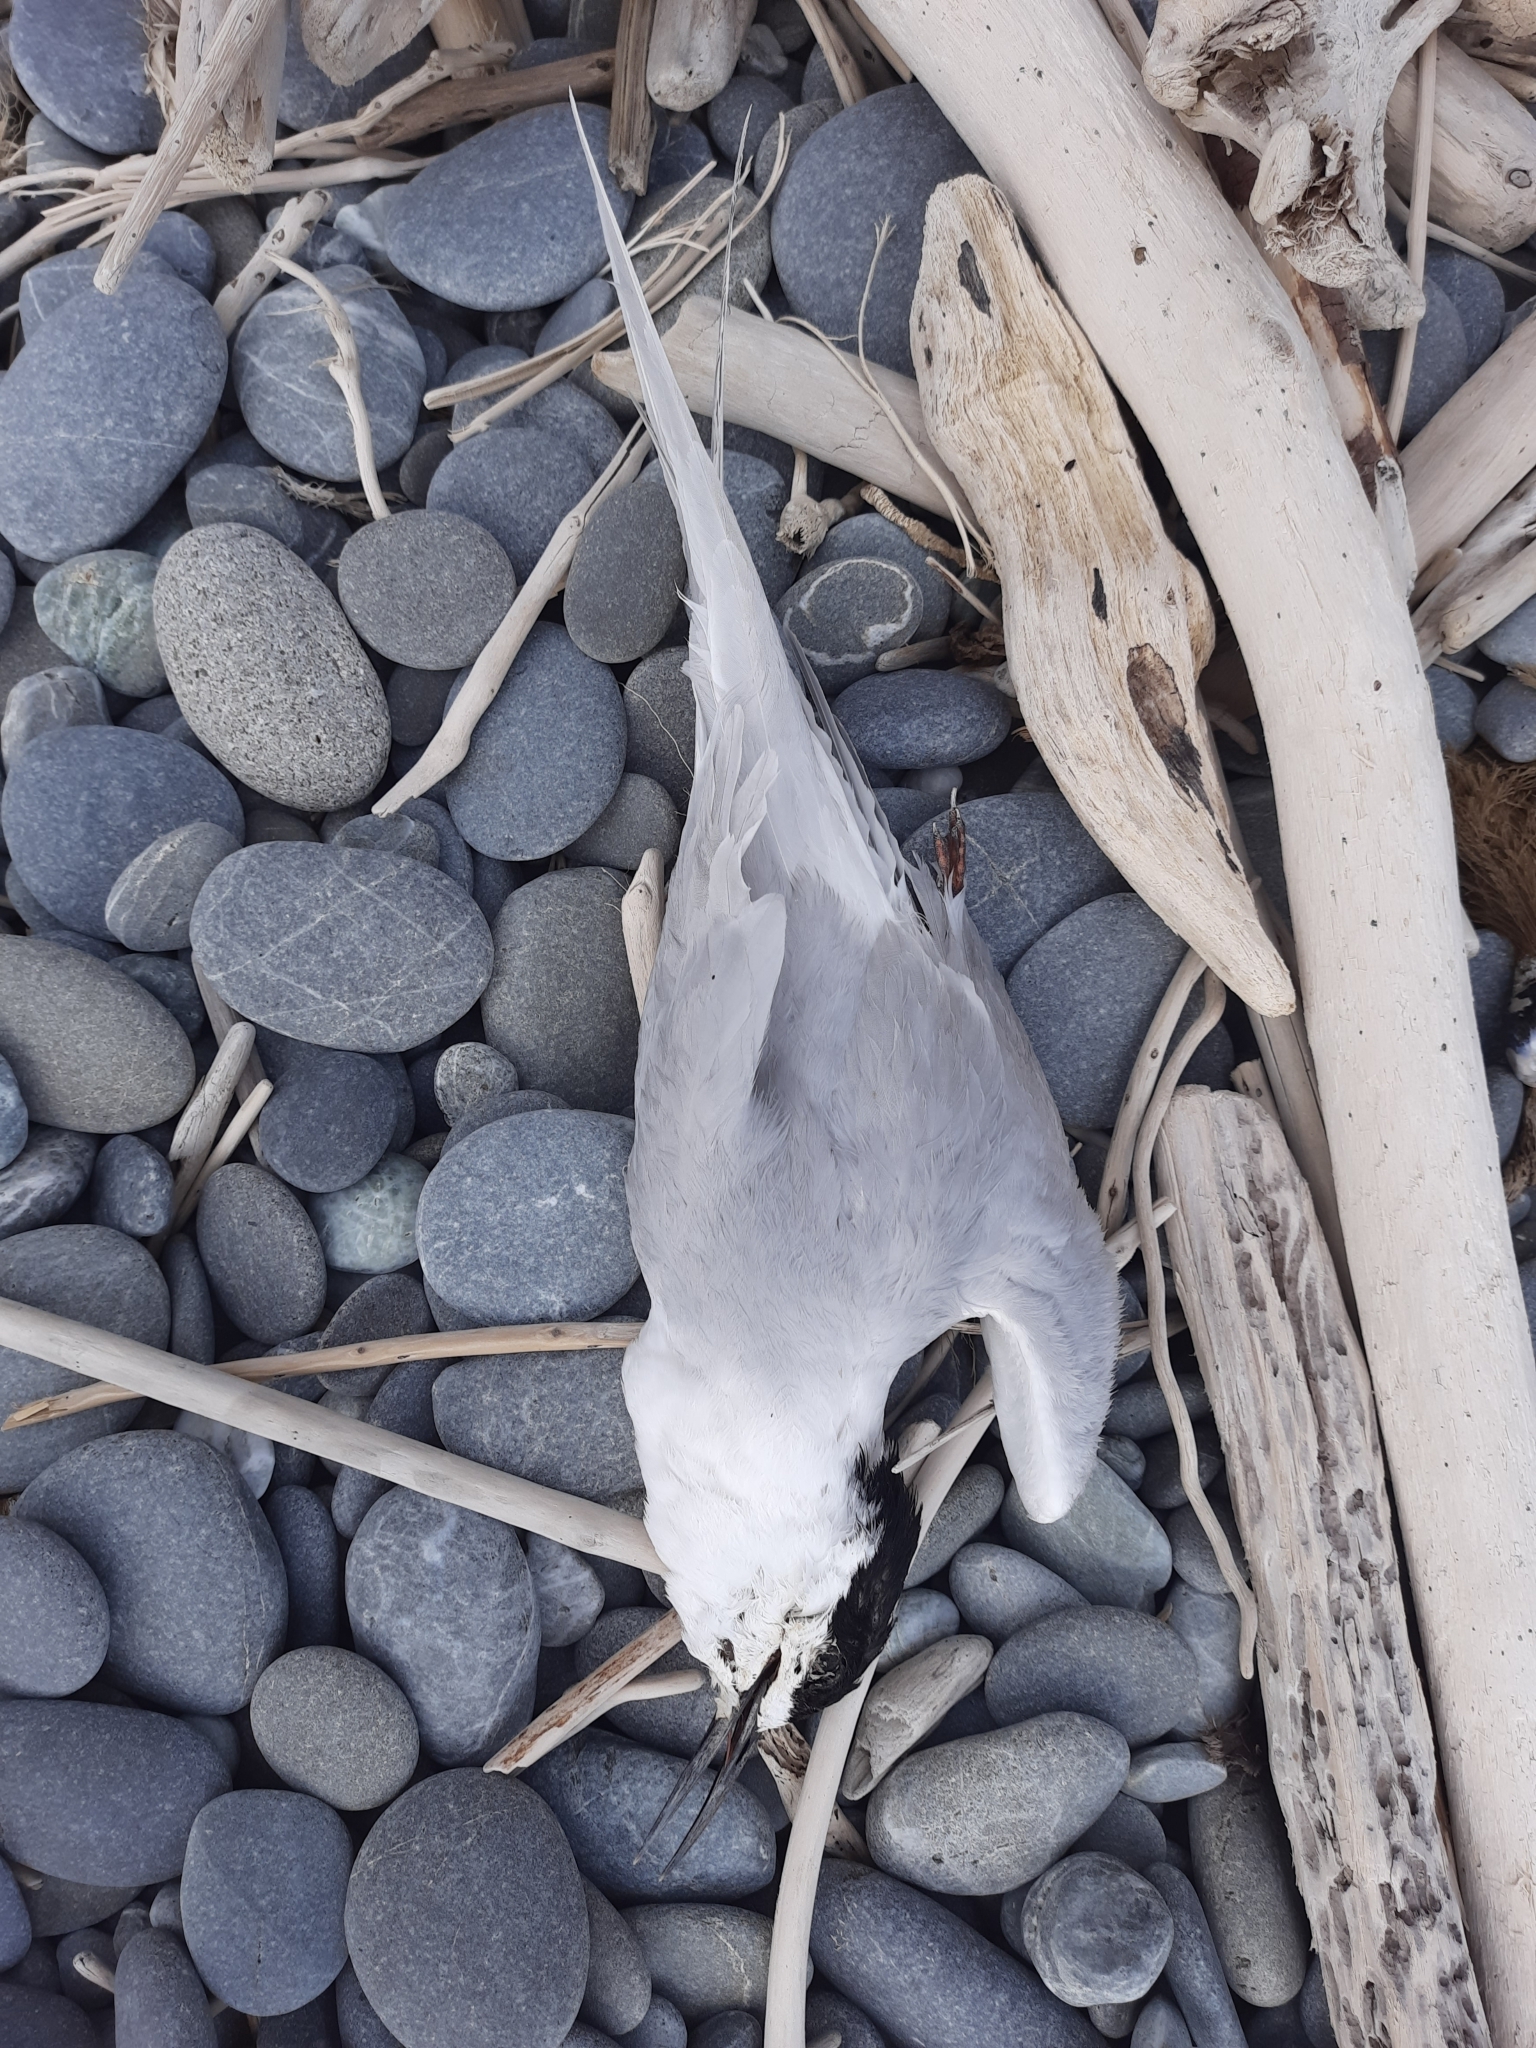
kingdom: Animalia
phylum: Chordata
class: Aves
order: Charadriiformes
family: Laridae
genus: Sterna
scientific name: Sterna striata
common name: White-fronted tern
